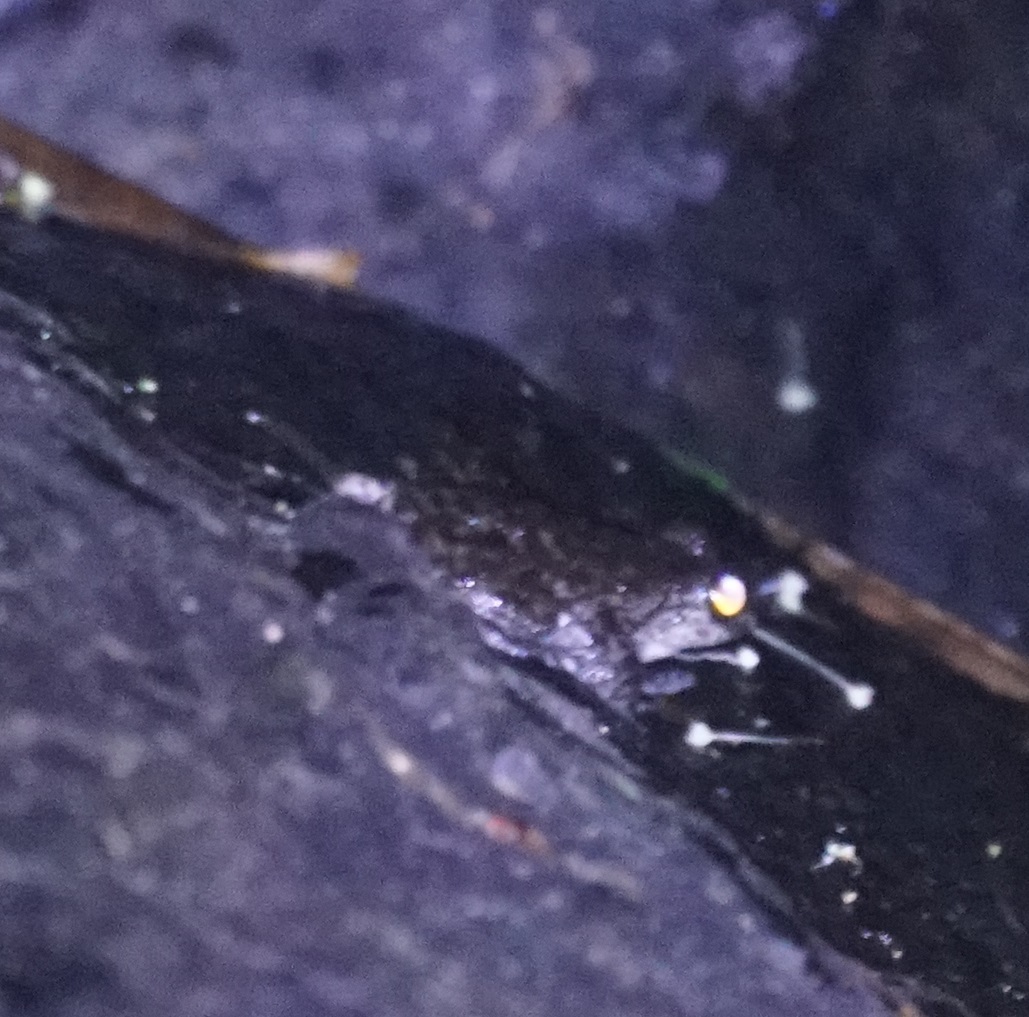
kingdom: Animalia
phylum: Chordata
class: Amphibia
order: Anura
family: Pelodryadidae
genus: Ranoidea
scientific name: Ranoidea nannotis
